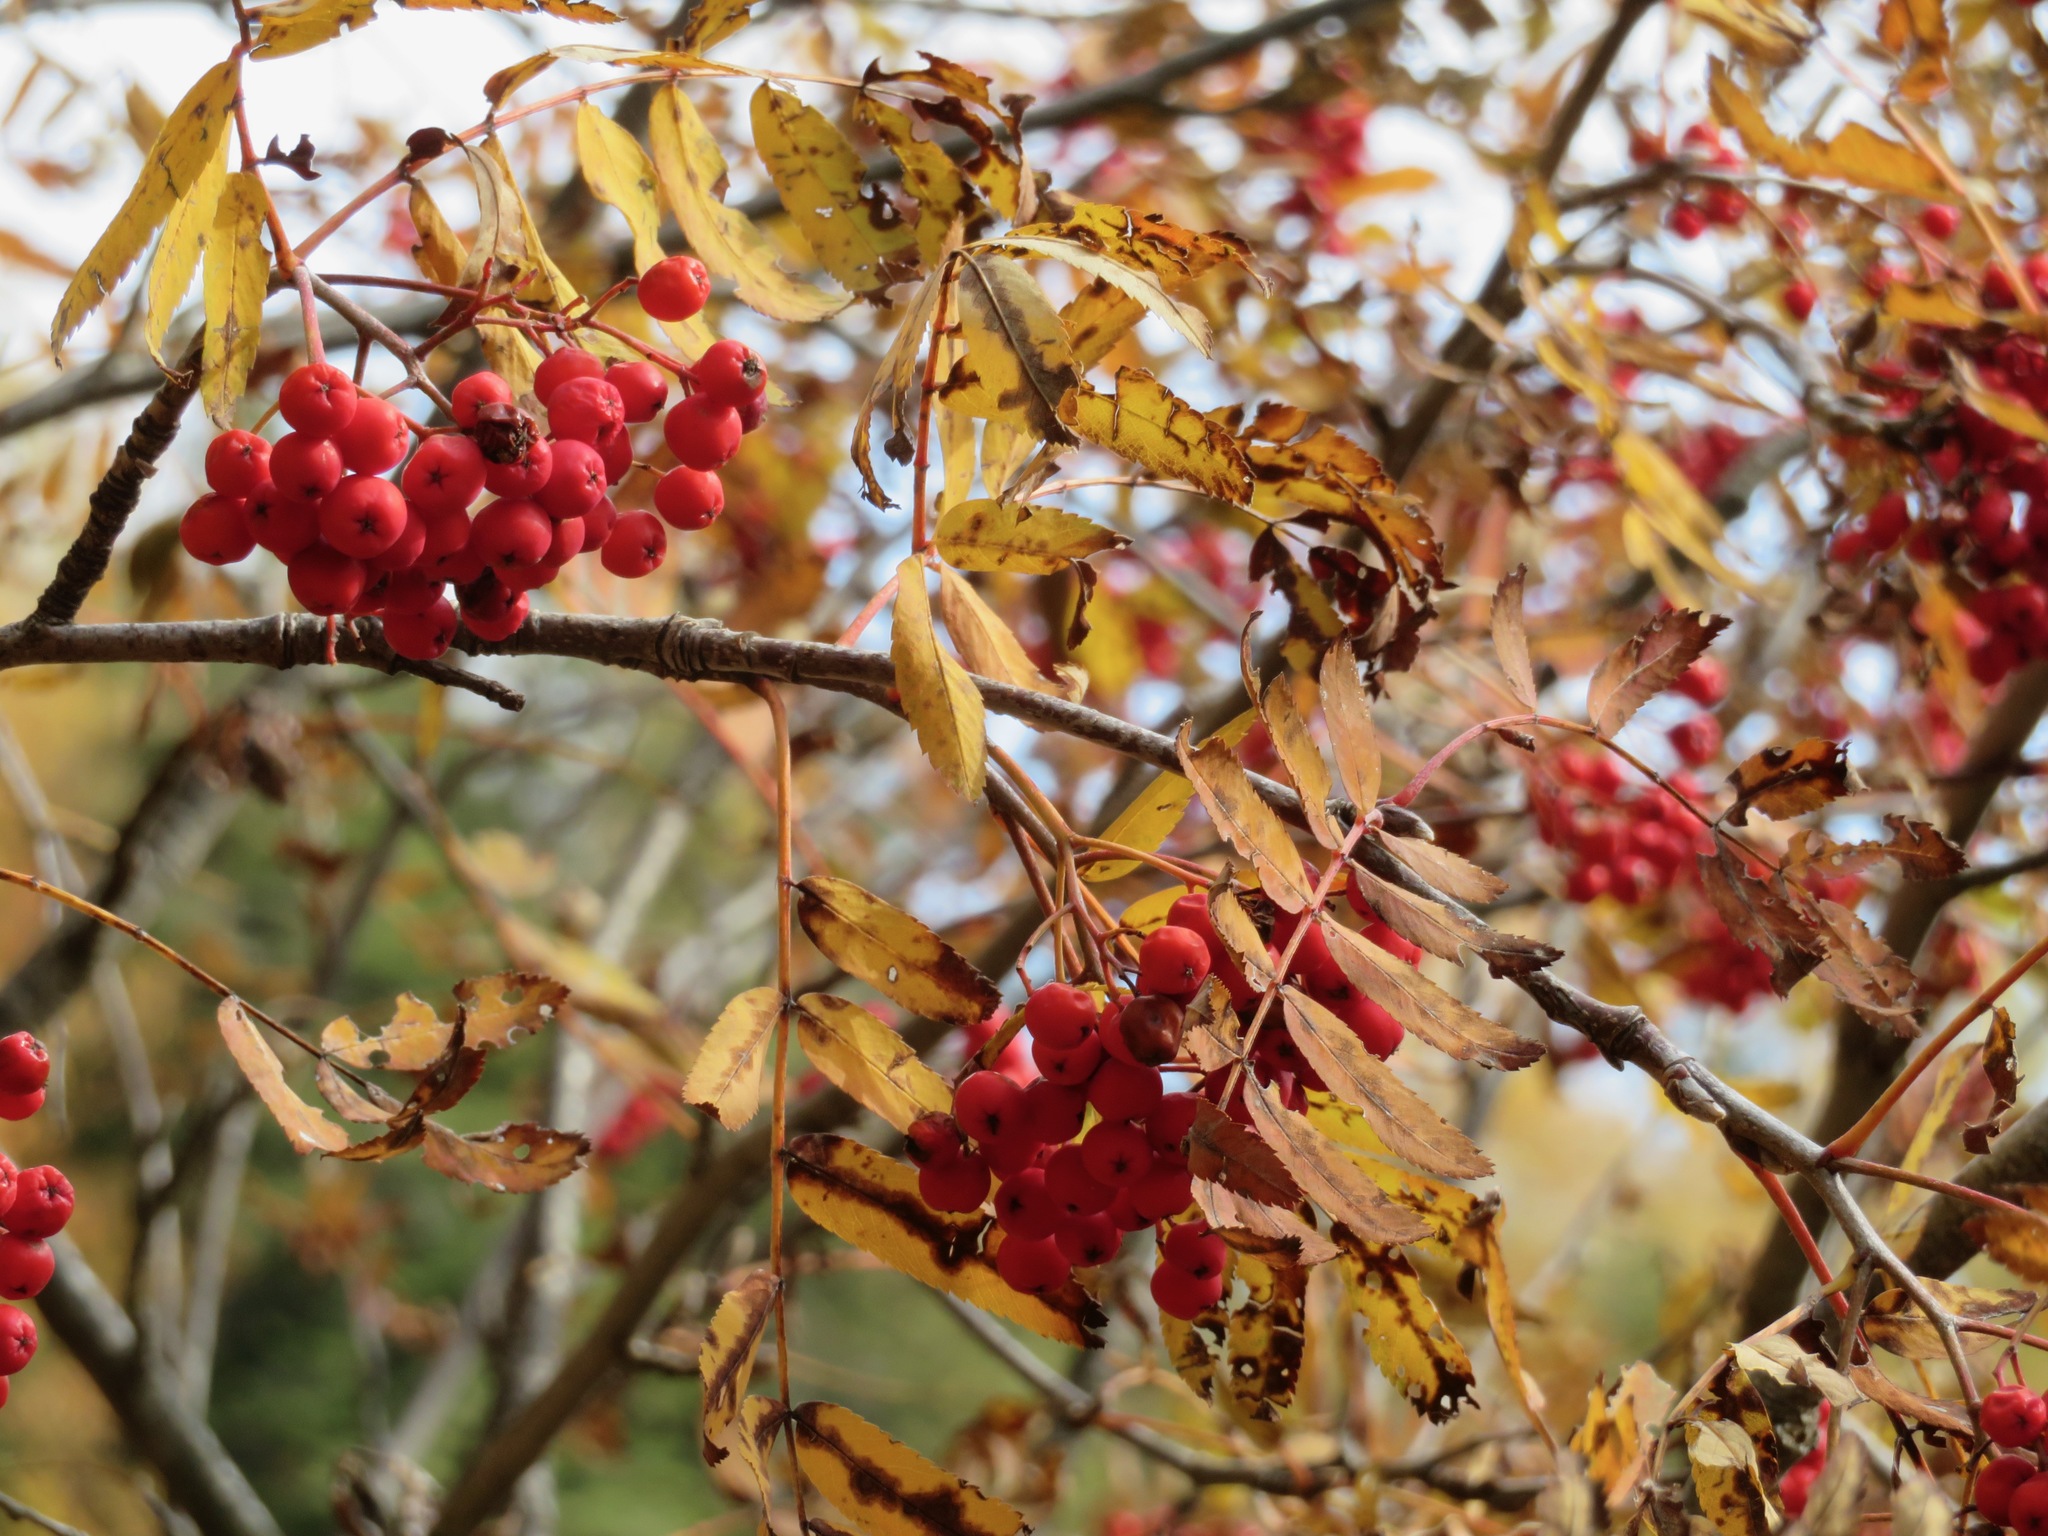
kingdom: Plantae
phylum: Tracheophyta
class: Magnoliopsida
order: Rosales
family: Rosaceae
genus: Sorbus
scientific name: Sorbus aucuparia
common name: Rowan
